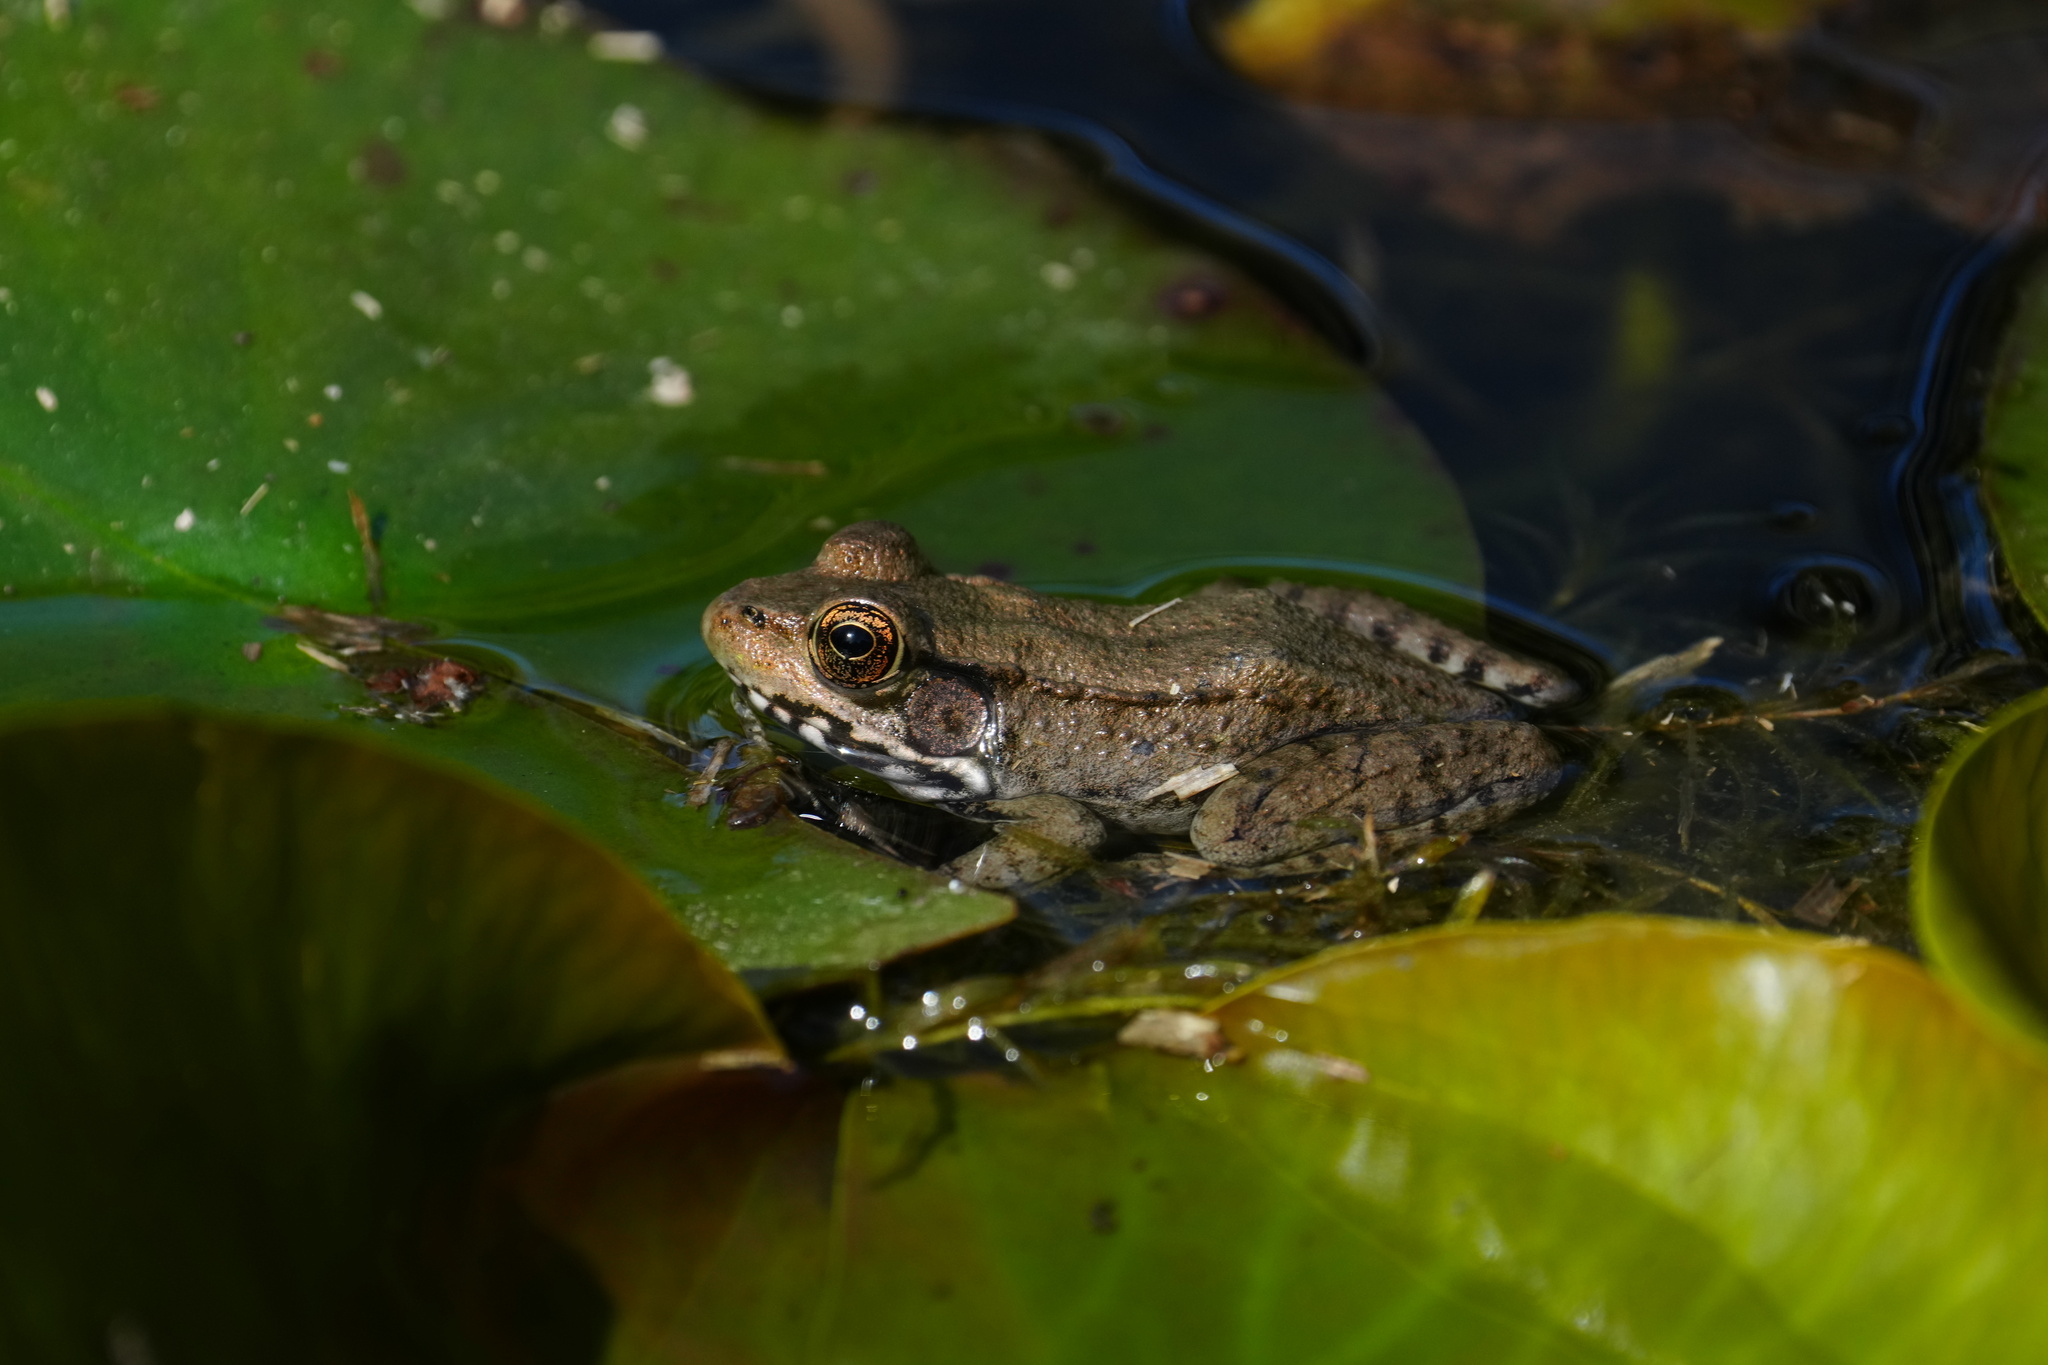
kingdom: Animalia
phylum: Chordata
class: Amphibia
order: Anura
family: Ranidae
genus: Lithobates
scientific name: Lithobates clamitans
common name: Green frog
